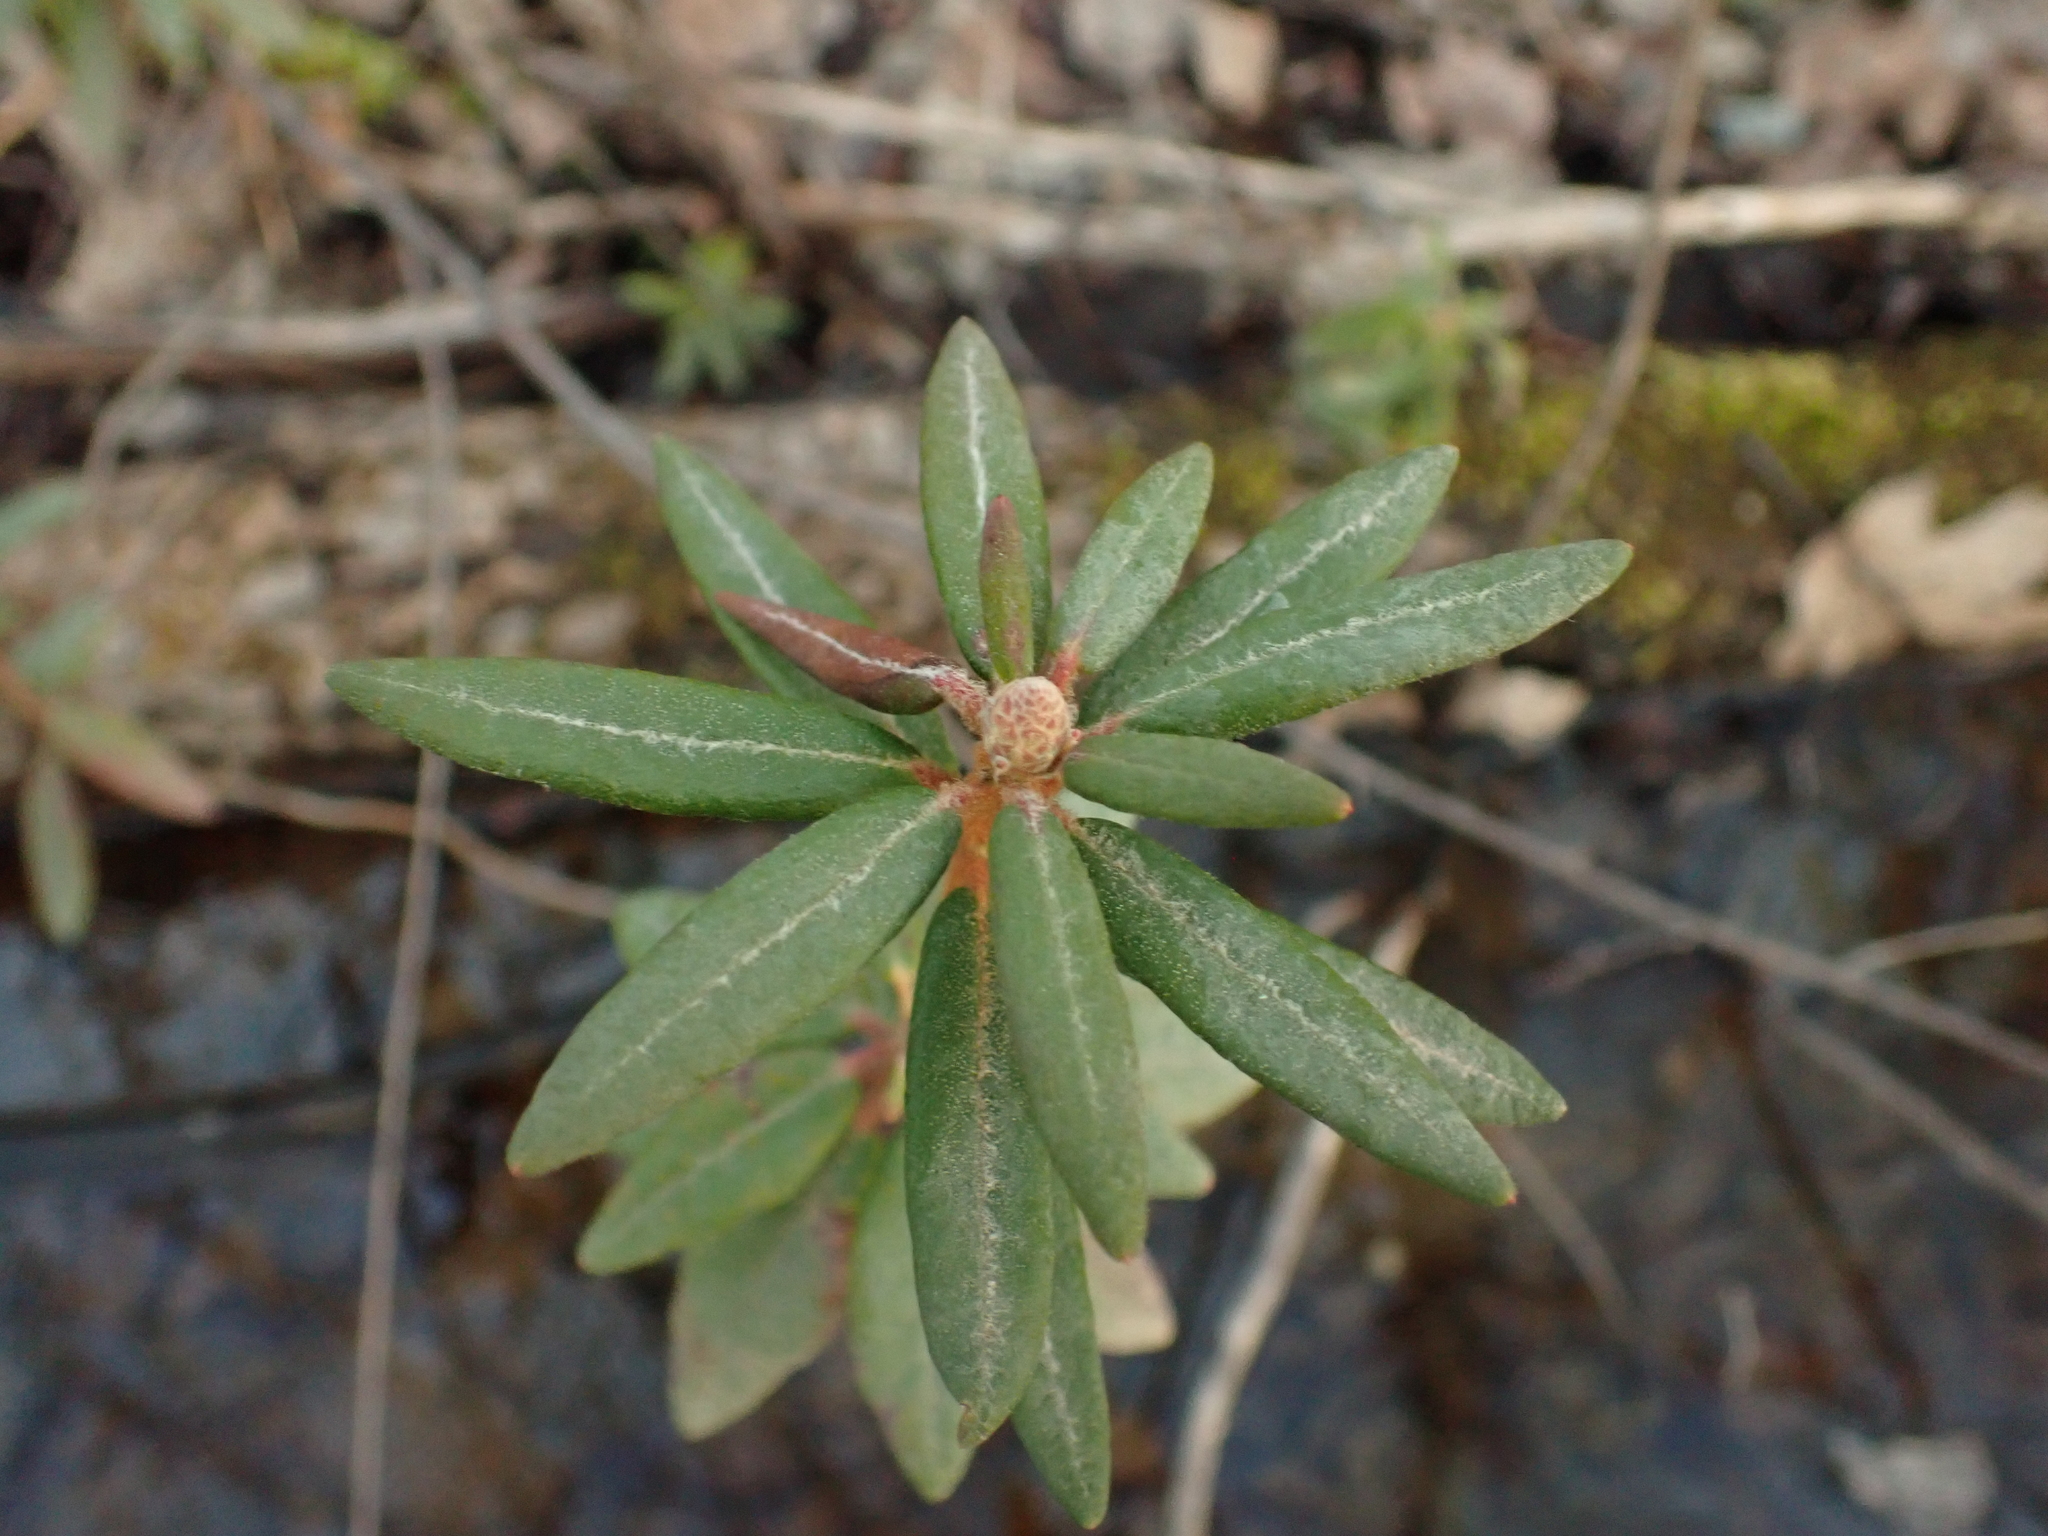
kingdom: Plantae
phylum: Tracheophyta
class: Magnoliopsida
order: Ericales
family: Ericaceae
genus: Rhododendron
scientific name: Rhododendron groenlandicum
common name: Bog labrador tea
